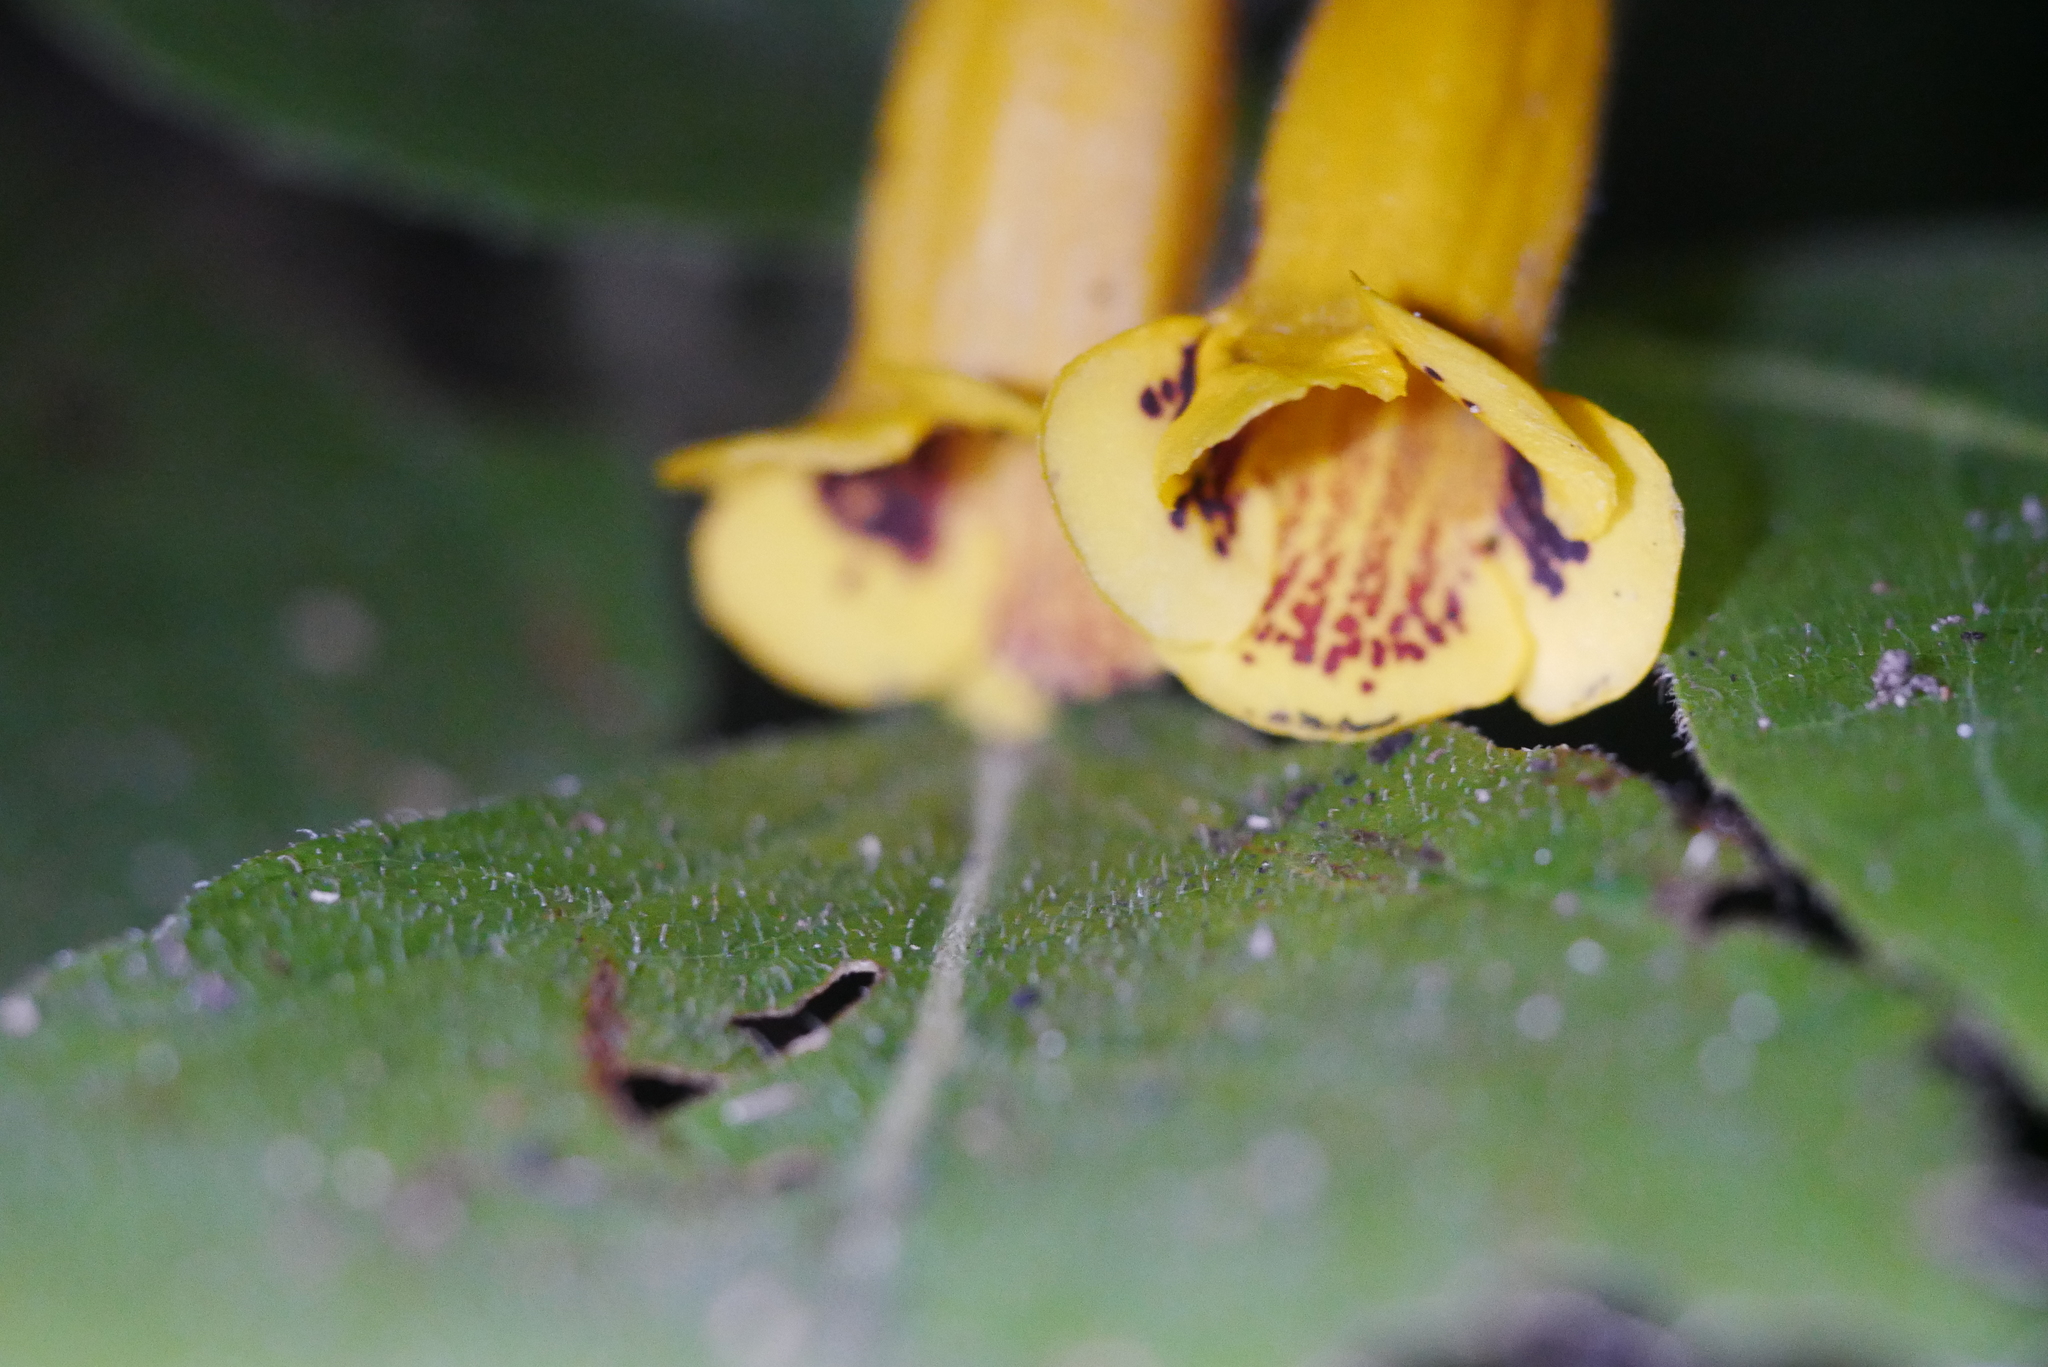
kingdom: Plantae
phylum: Tracheophyta
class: Magnoliopsida
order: Lamiales
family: Gesneriaceae
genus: Titanotrichum
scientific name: Titanotrichum oldhamii
